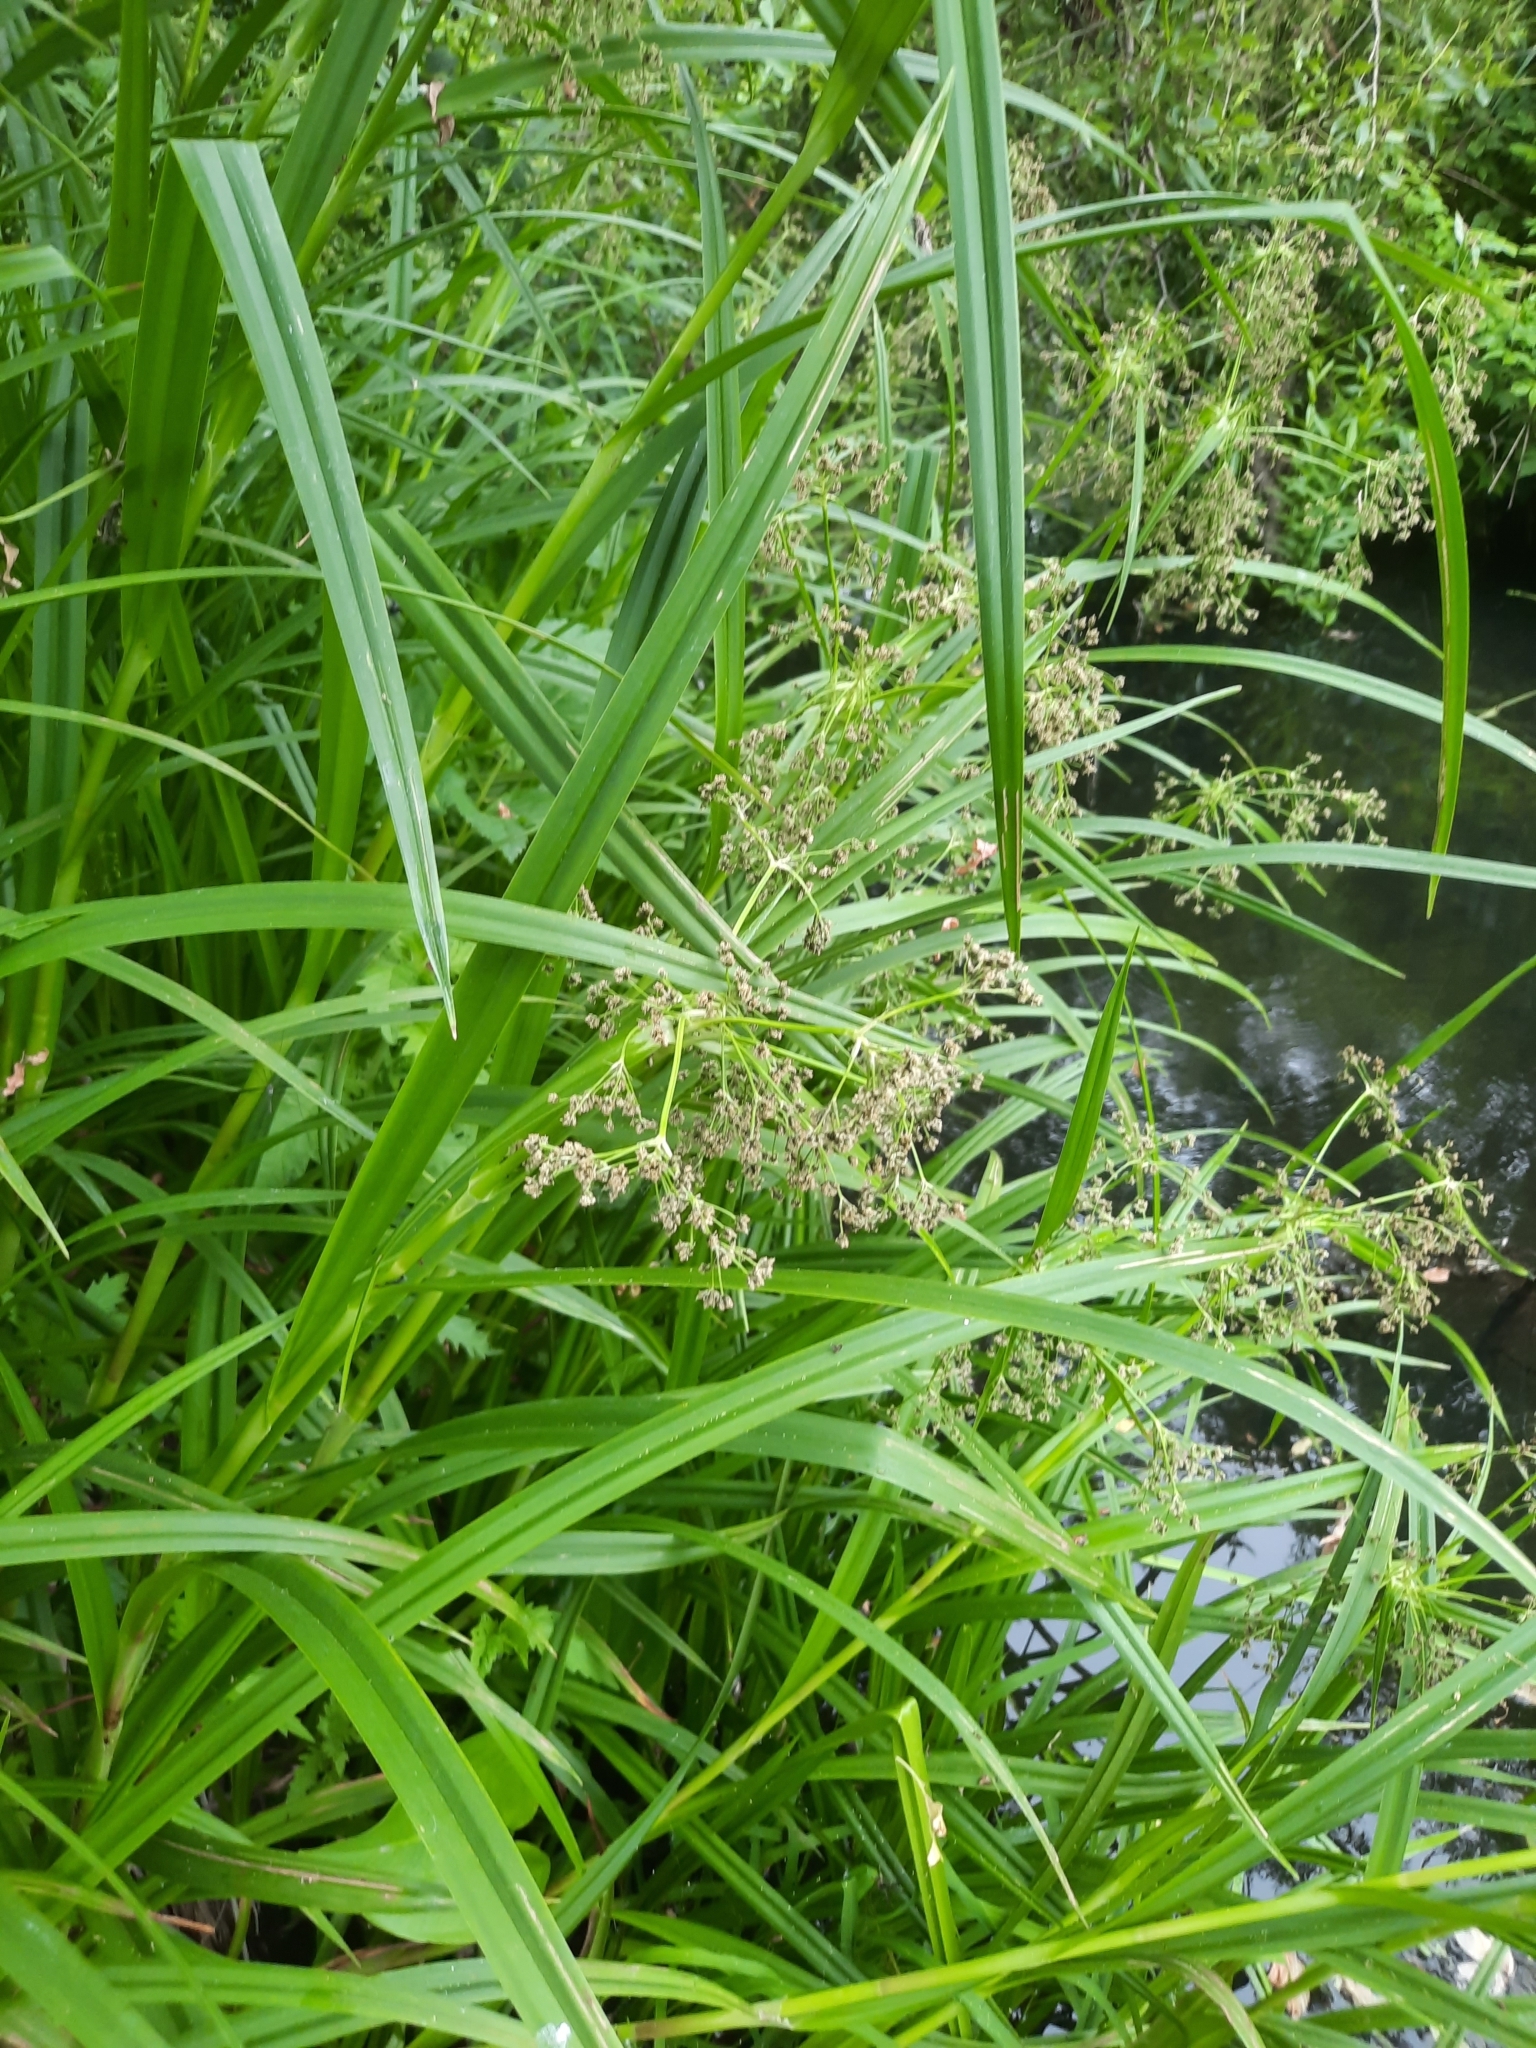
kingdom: Plantae
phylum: Tracheophyta
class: Liliopsida
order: Poales
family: Cyperaceae
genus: Scirpus
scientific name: Scirpus sylvaticus
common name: Wood club-rush
